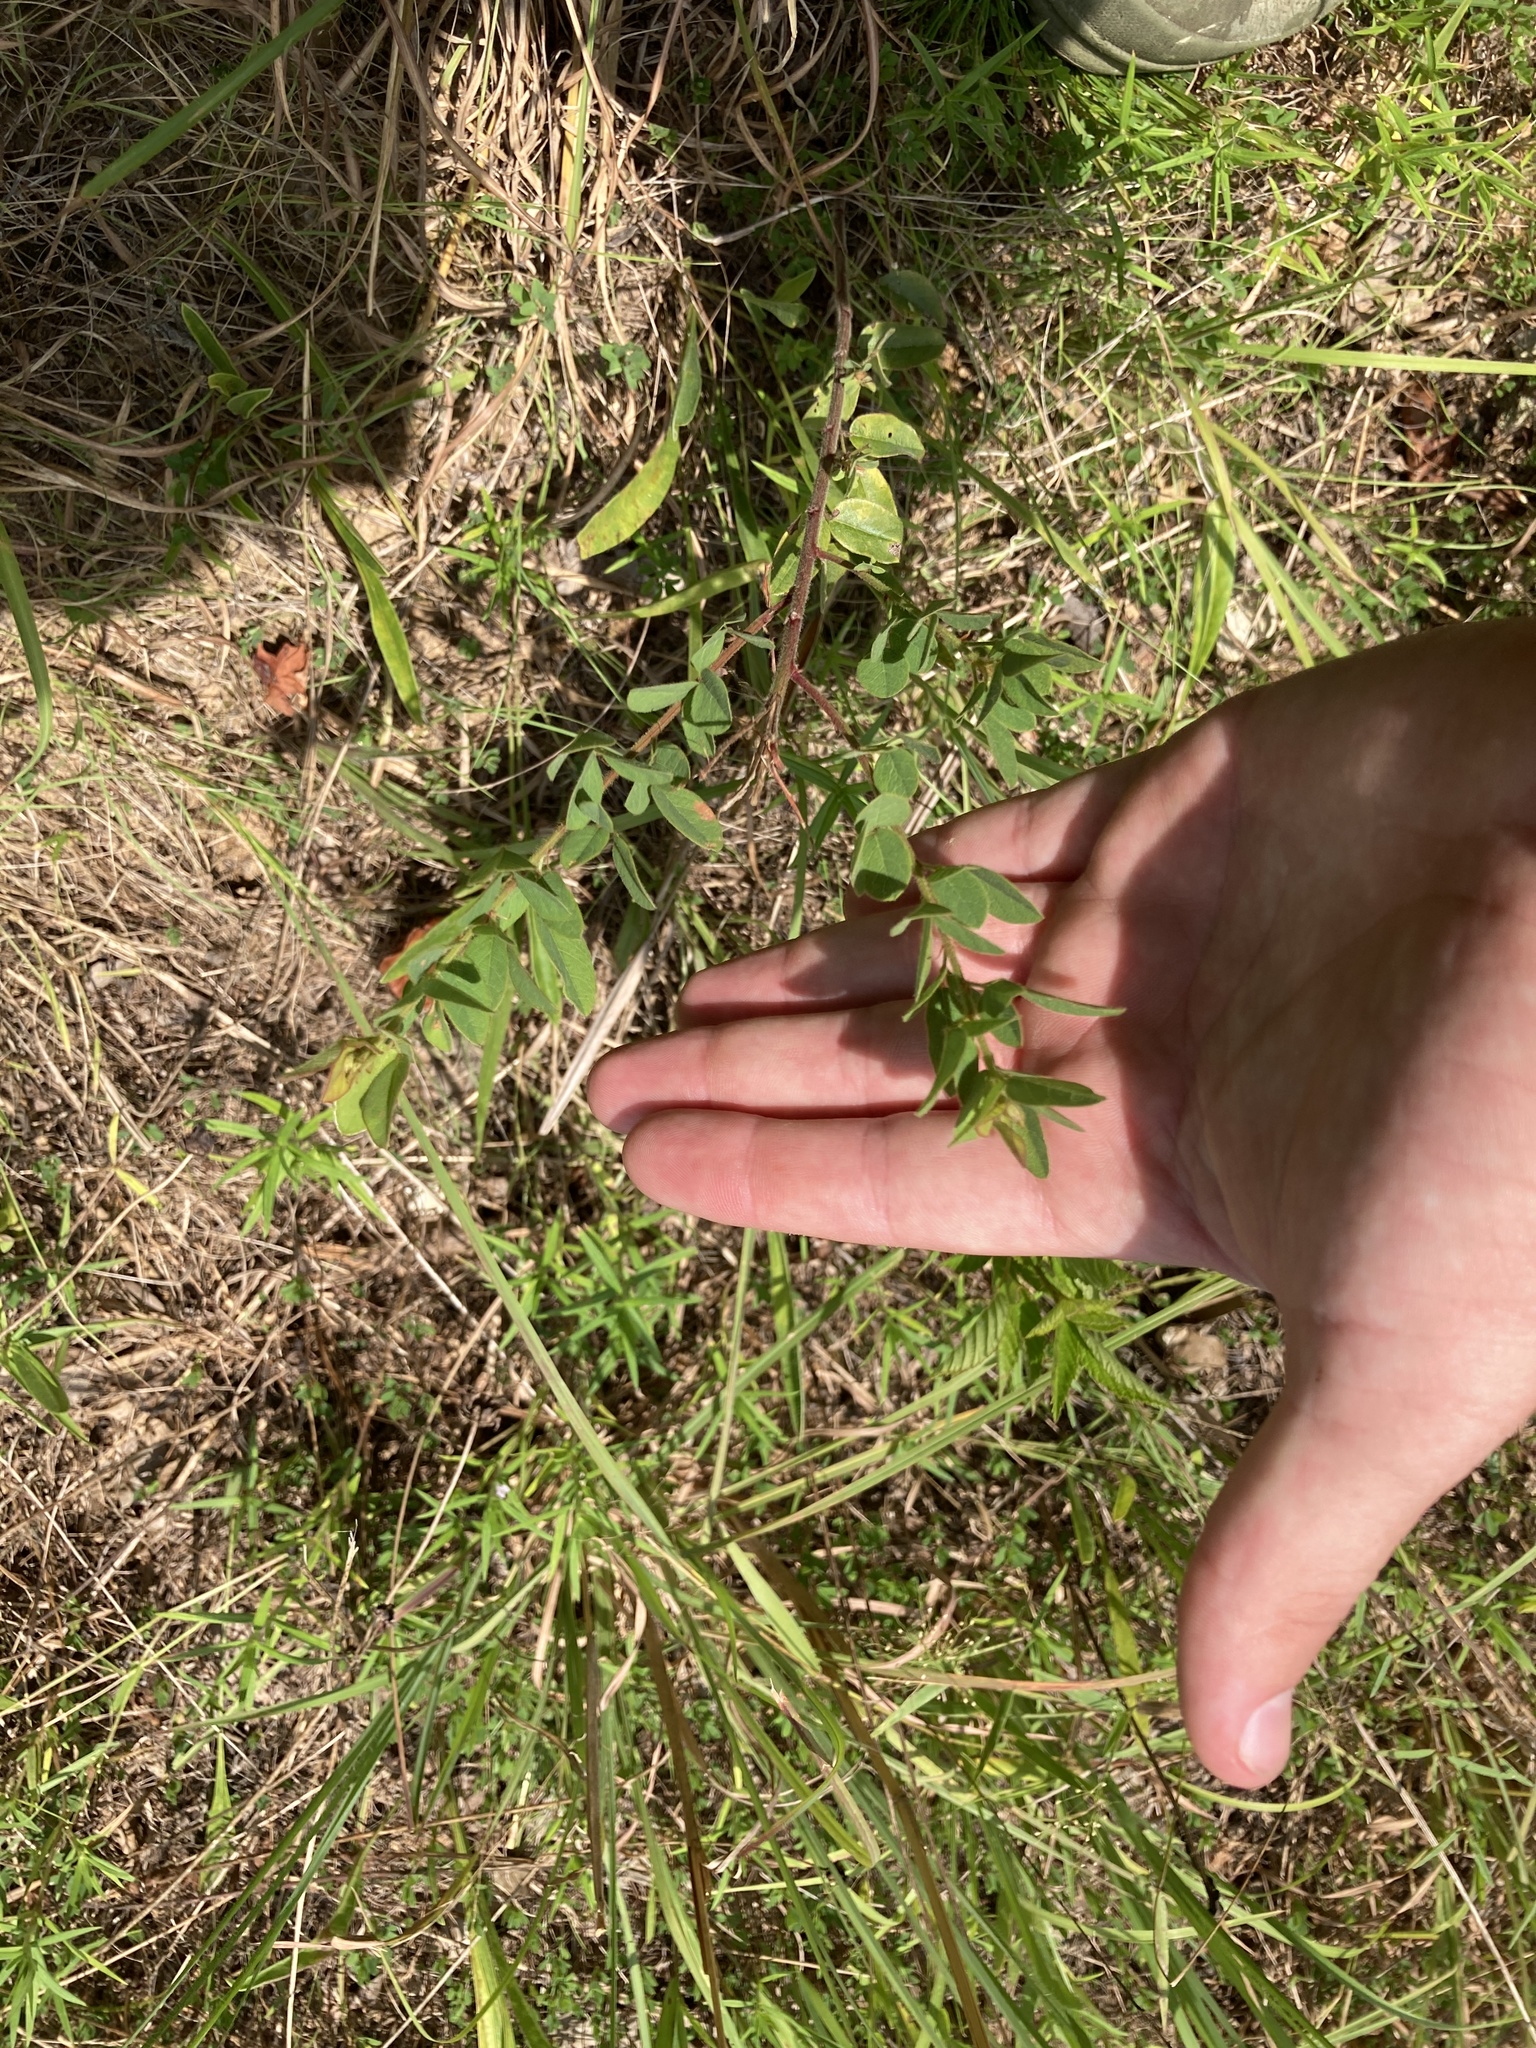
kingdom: Plantae
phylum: Tracheophyta
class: Magnoliopsida
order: Fabales
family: Fabaceae
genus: Desmodium
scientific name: Desmodium ciliare
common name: Hairy small-leaf ticktrefoil
